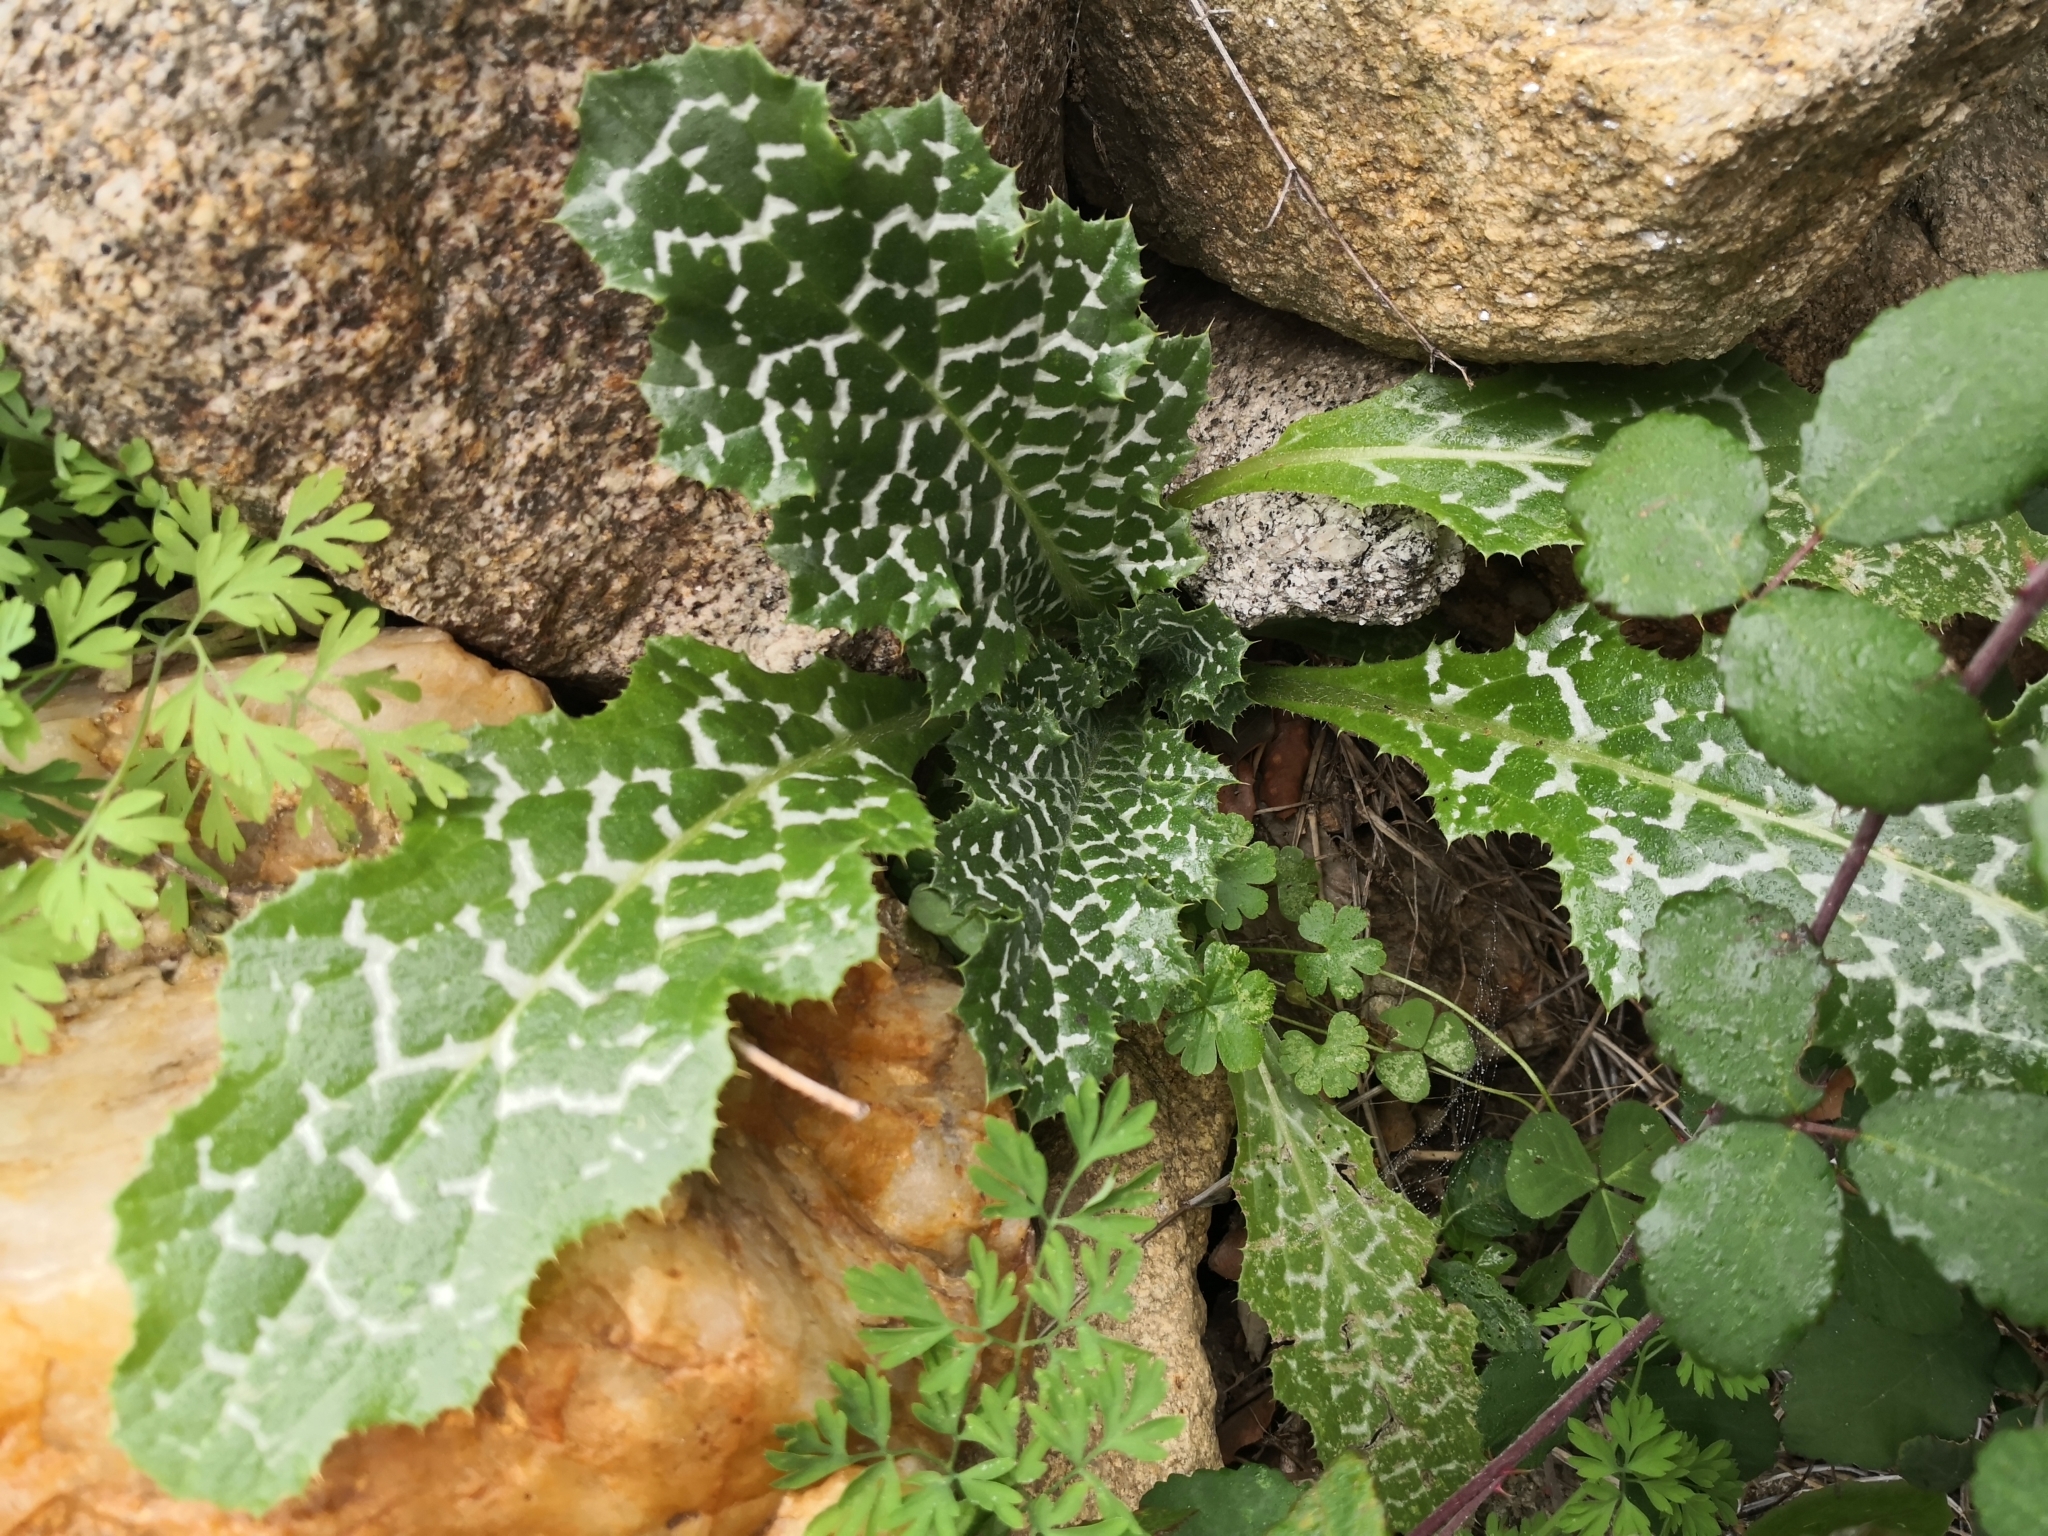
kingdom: Plantae
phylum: Tracheophyta
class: Magnoliopsida
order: Asterales
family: Asteraceae
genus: Silybum
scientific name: Silybum marianum
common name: Milk thistle
